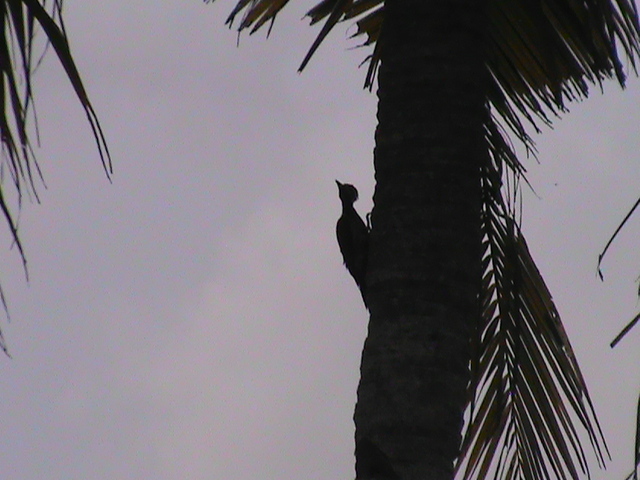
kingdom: Animalia
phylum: Chordata
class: Aves
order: Piciformes
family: Picidae
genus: Dinopium
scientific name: Dinopium benghalense
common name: Black-rumped flameback
